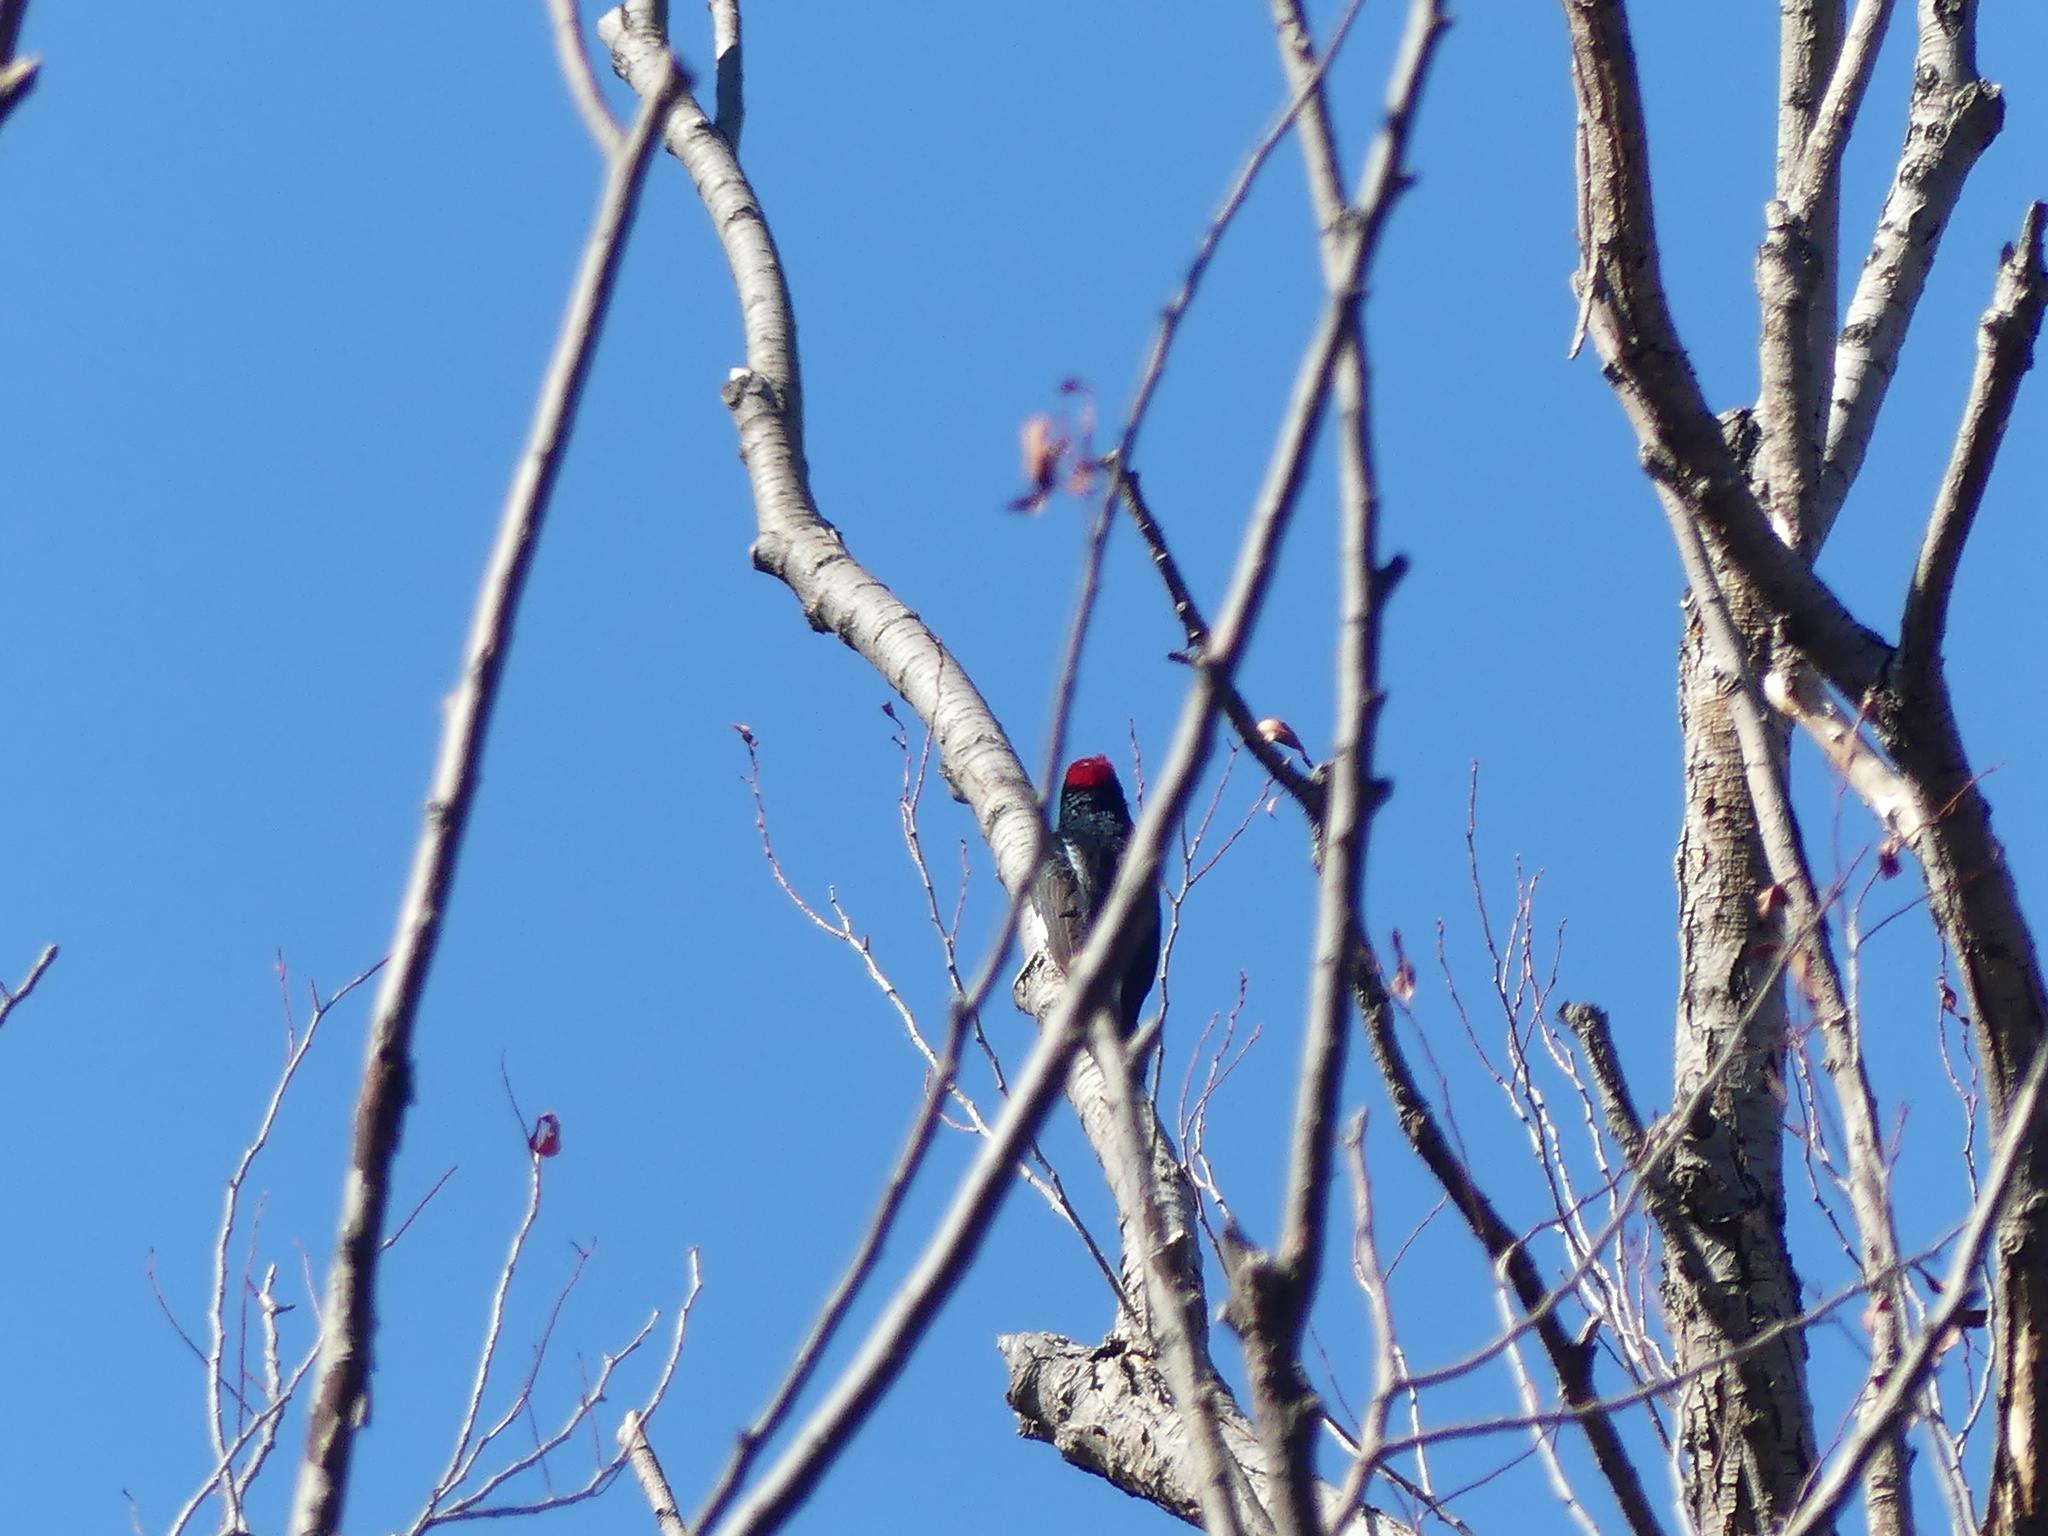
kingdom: Animalia
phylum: Chordata
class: Aves
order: Piciformes
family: Picidae
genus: Melanerpes
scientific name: Melanerpes formicivorus
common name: Acorn woodpecker
